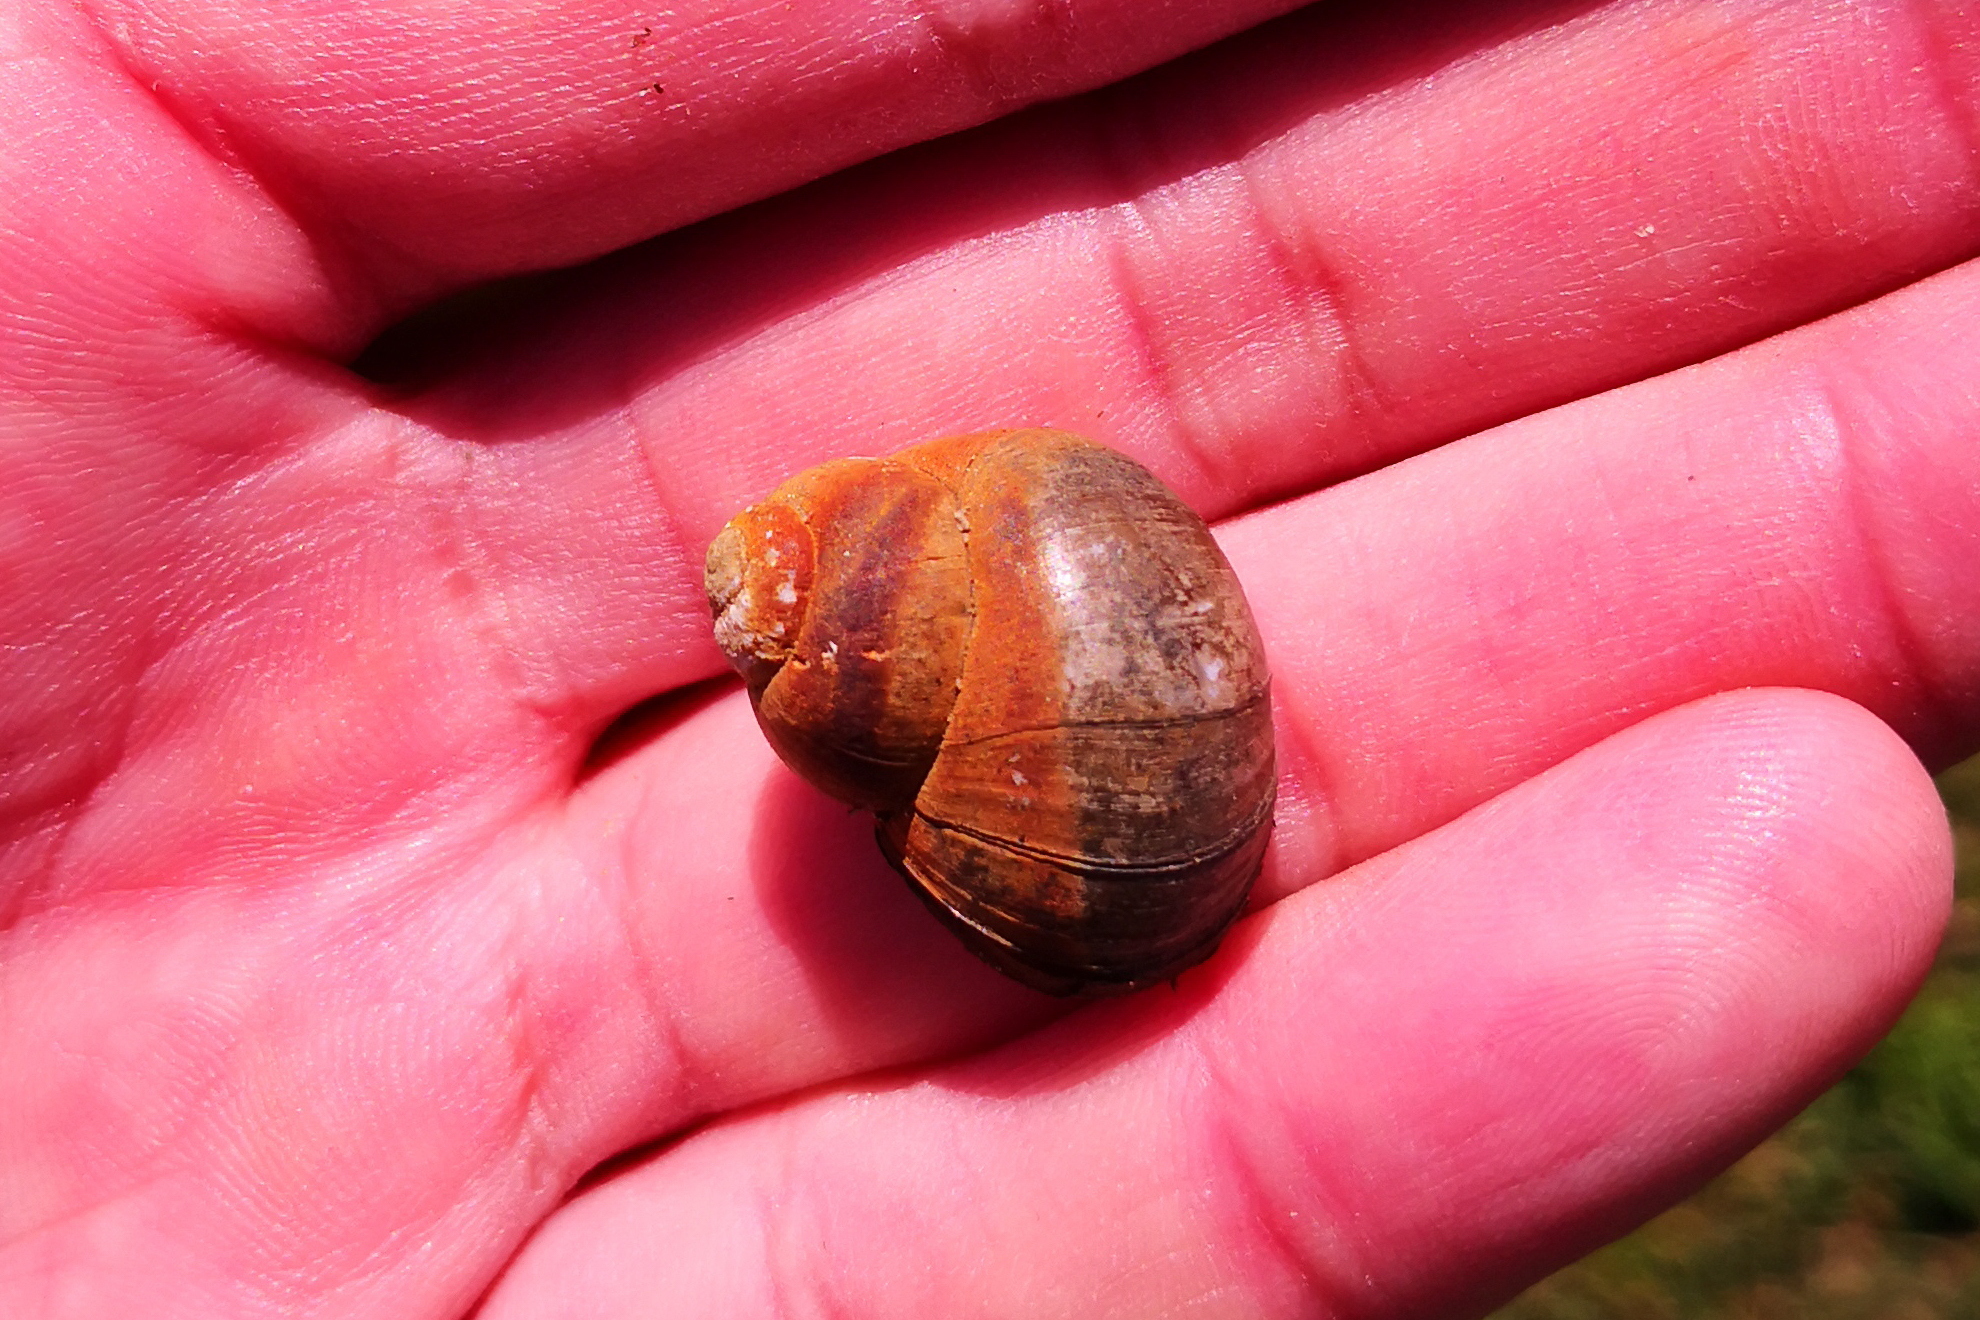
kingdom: Animalia
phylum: Mollusca
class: Gastropoda
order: Architaenioglossa
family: Viviparidae
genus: Viviparus
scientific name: Viviparus viviparus
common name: River snail
